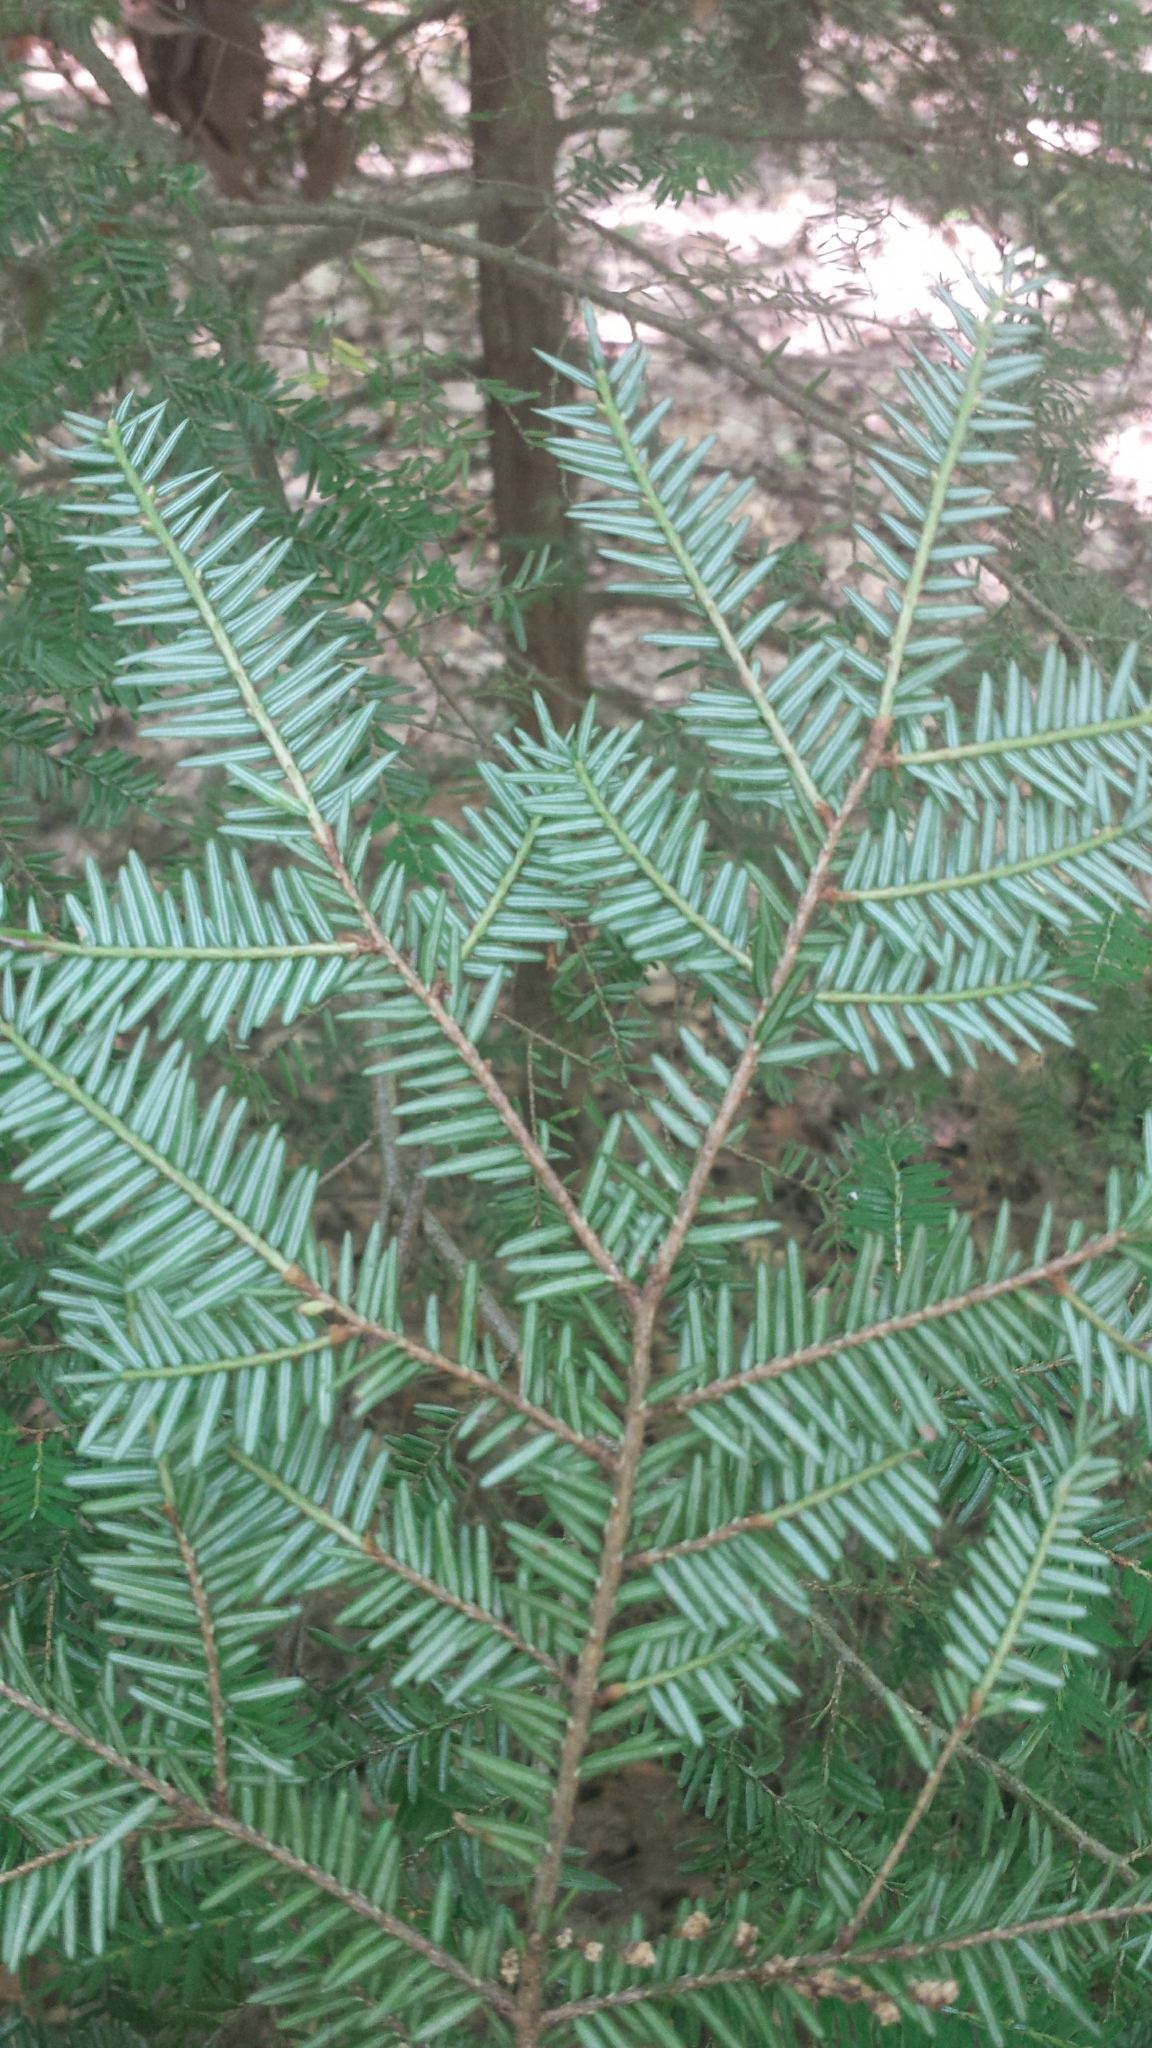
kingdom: Plantae
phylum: Tracheophyta
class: Pinopsida
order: Pinales
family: Pinaceae
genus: Tsuga
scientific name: Tsuga canadensis
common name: Eastern hemlock
